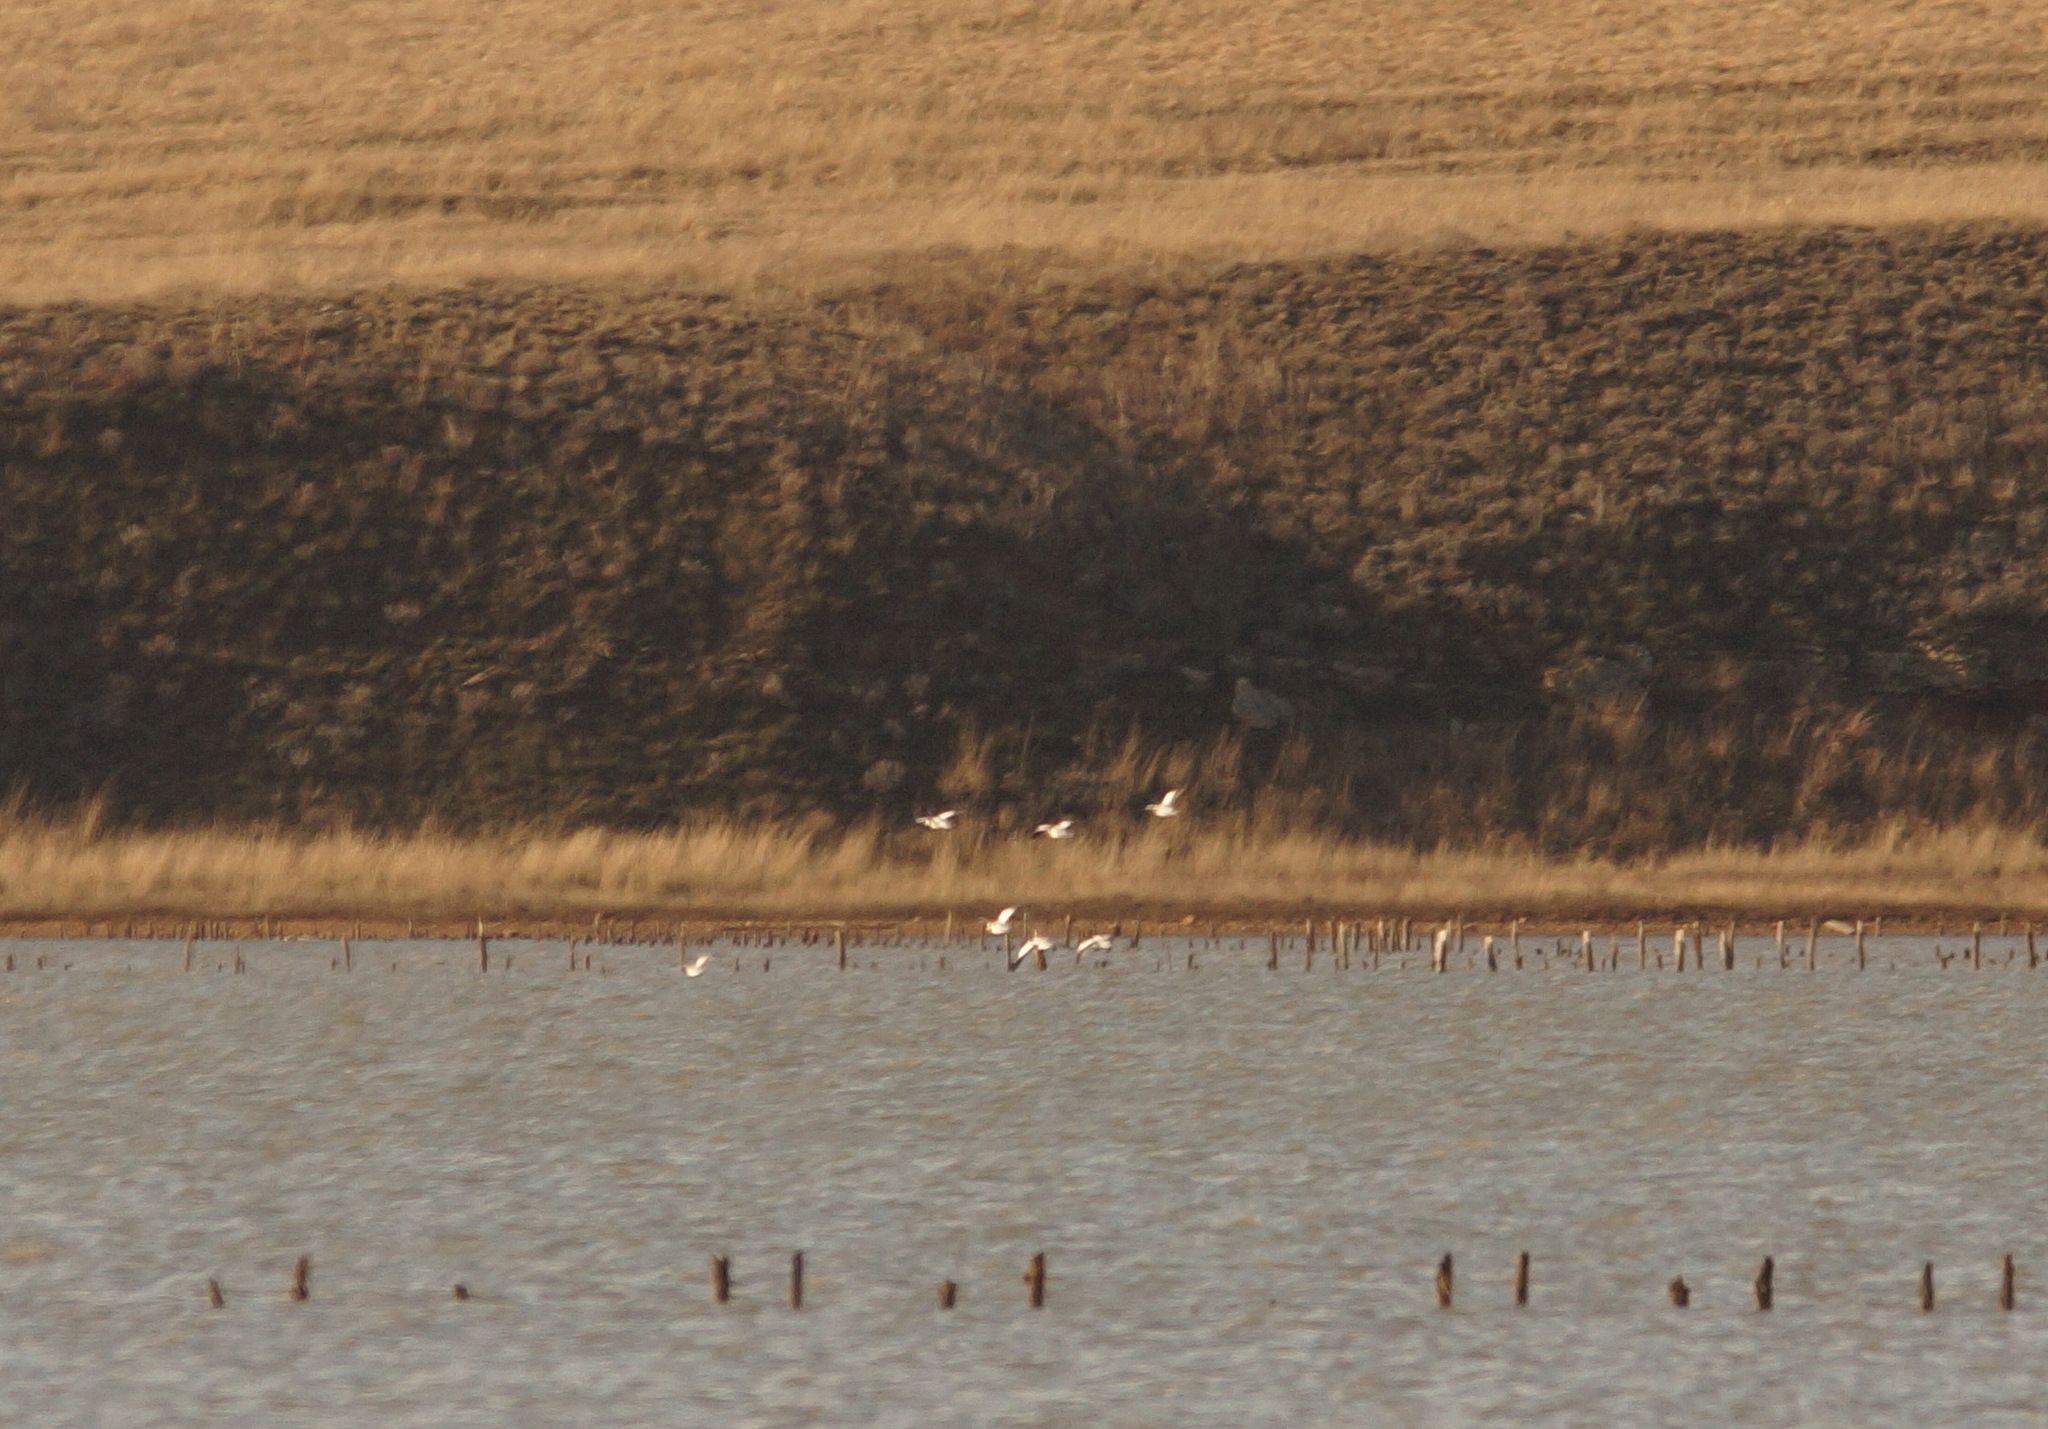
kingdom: Animalia
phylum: Chordata
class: Aves
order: Anseriformes
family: Anatidae
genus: Tadorna
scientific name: Tadorna tadorna
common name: Common shelduck
